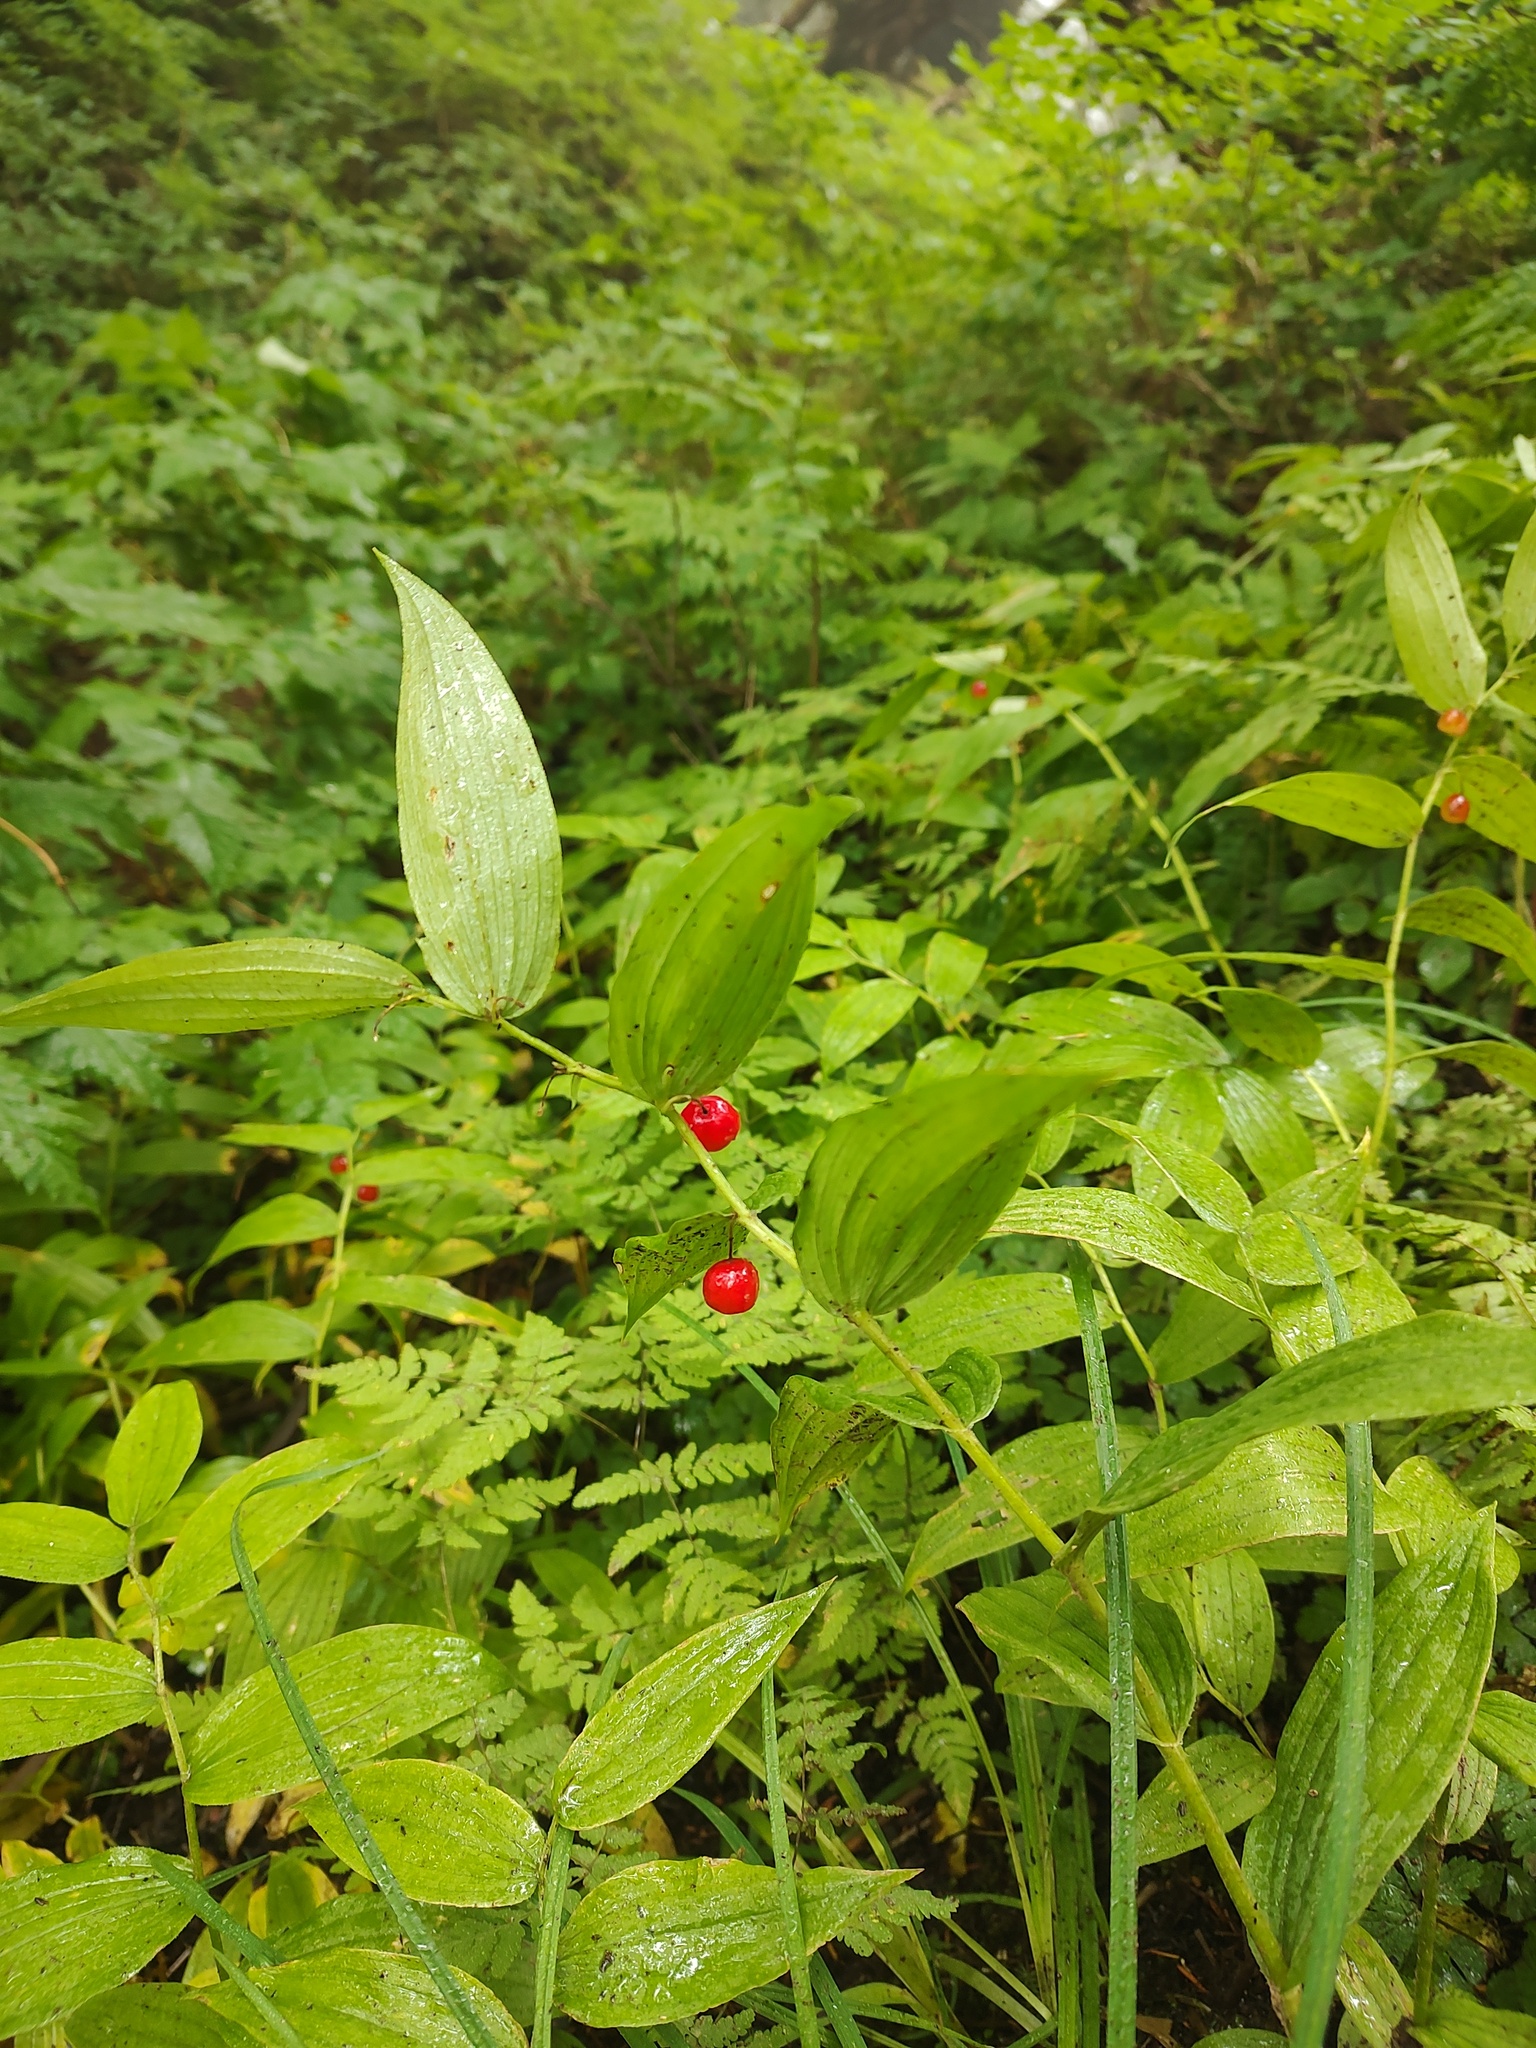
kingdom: Plantae
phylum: Tracheophyta
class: Liliopsida
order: Liliales
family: Liliaceae
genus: Streptopus
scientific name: Streptopus lanceolatus
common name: Rose mandarin
